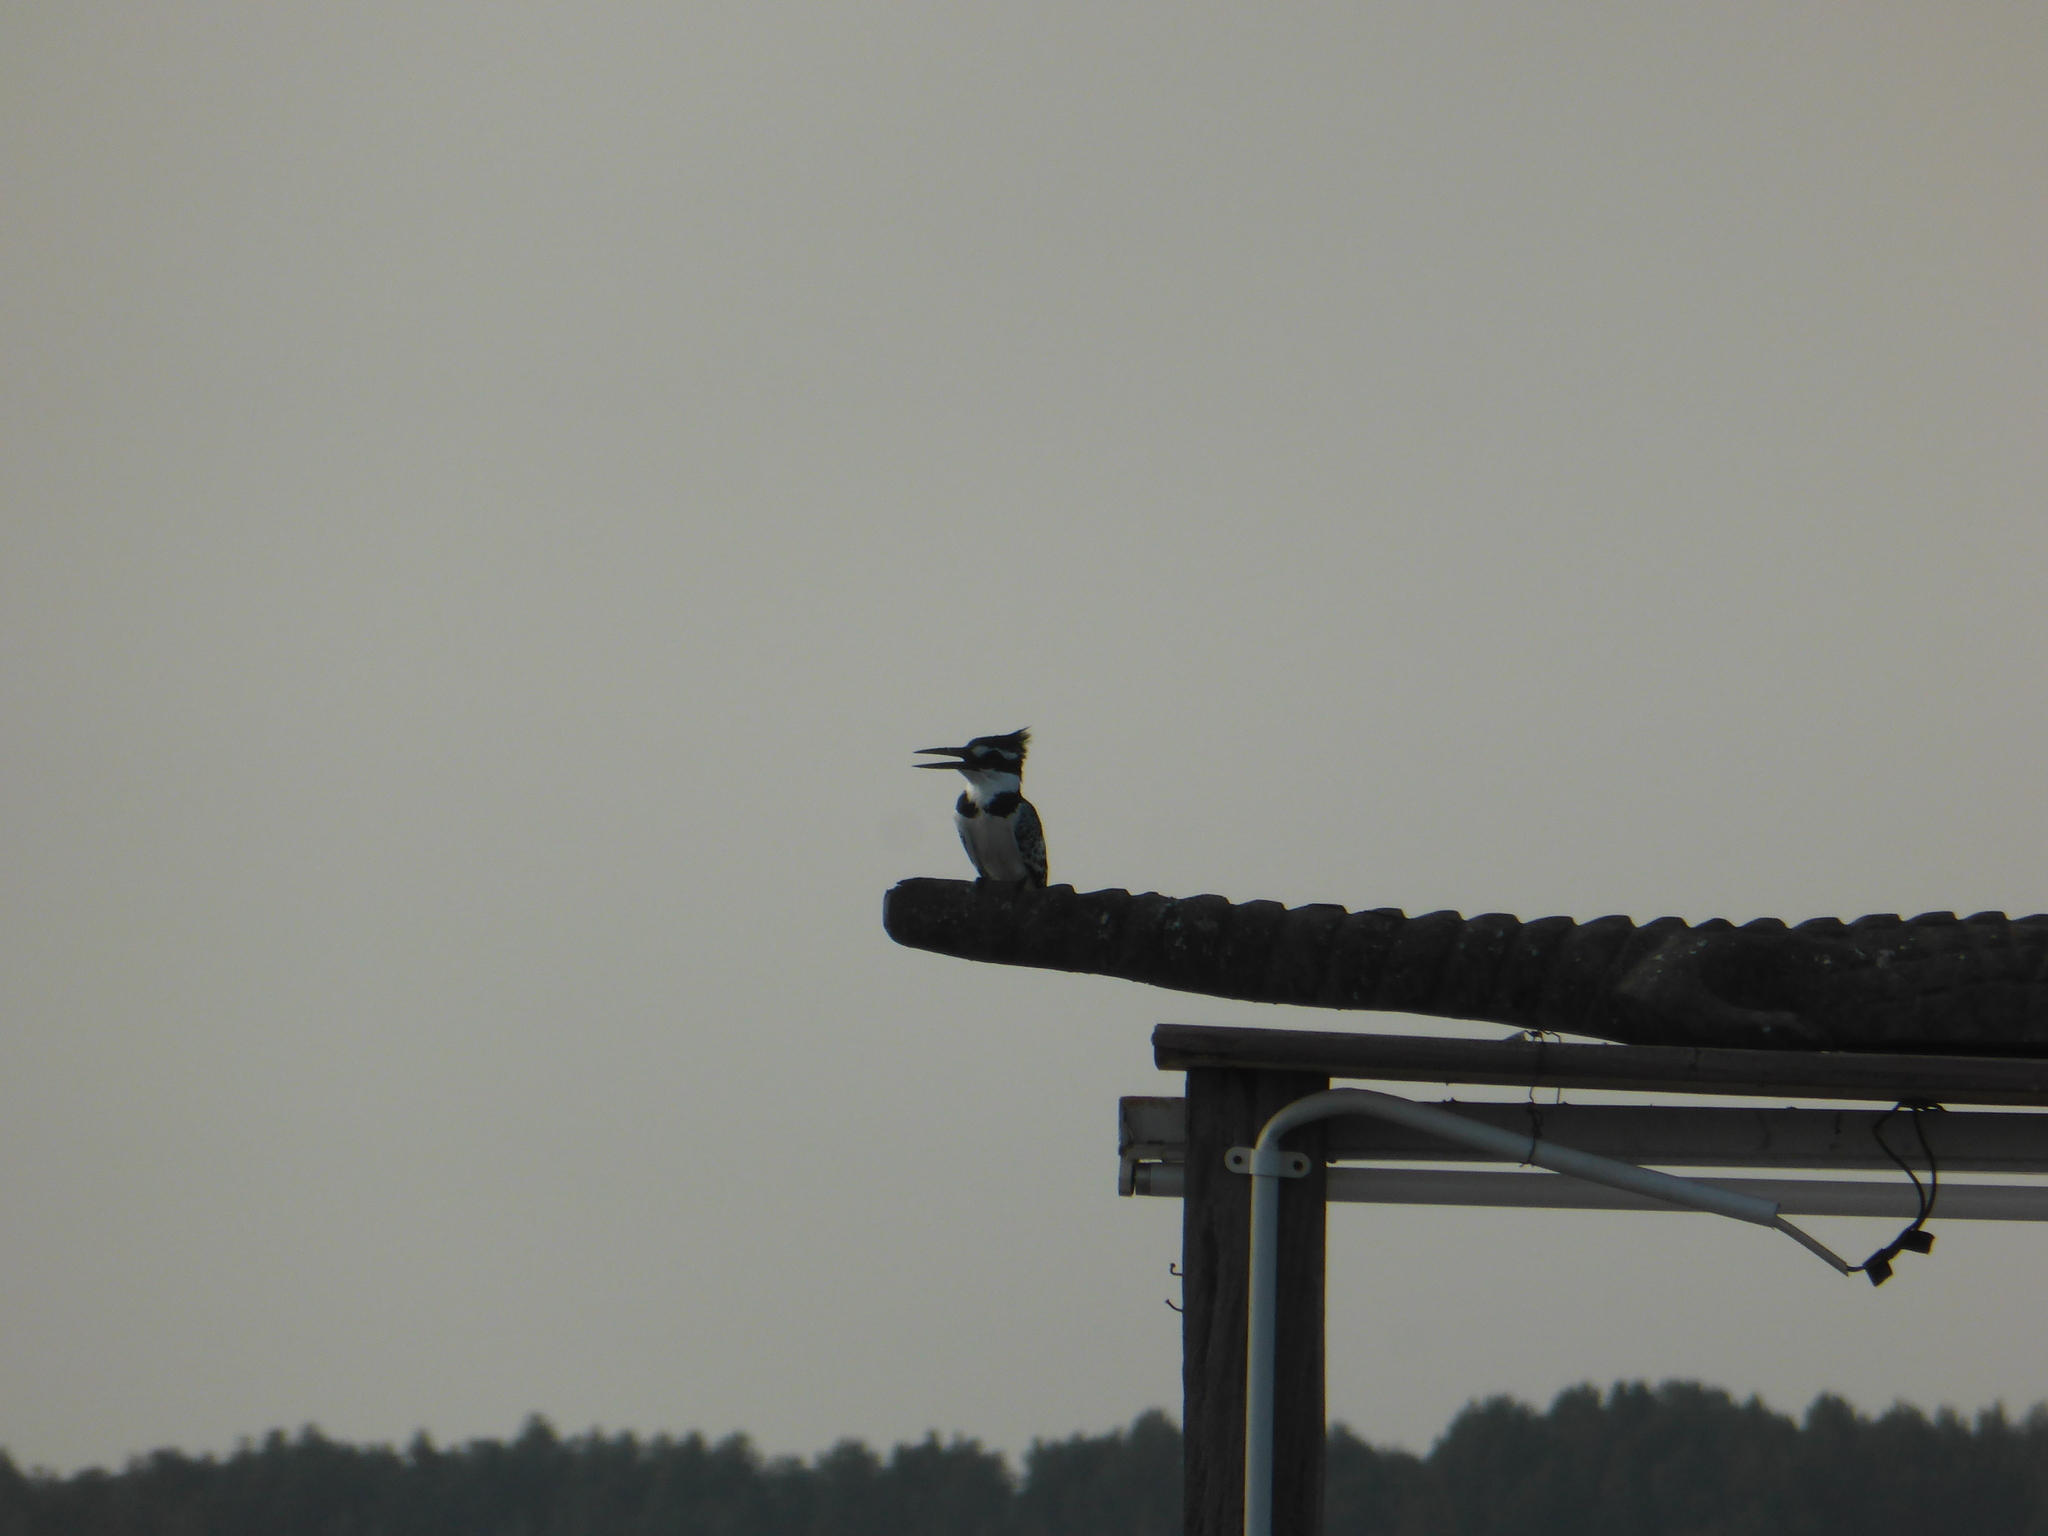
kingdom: Animalia
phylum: Chordata
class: Aves
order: Coraciiformes
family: Alcedinidae
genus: Ceryle
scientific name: Ceryle rudis
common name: Pied kingfisher
